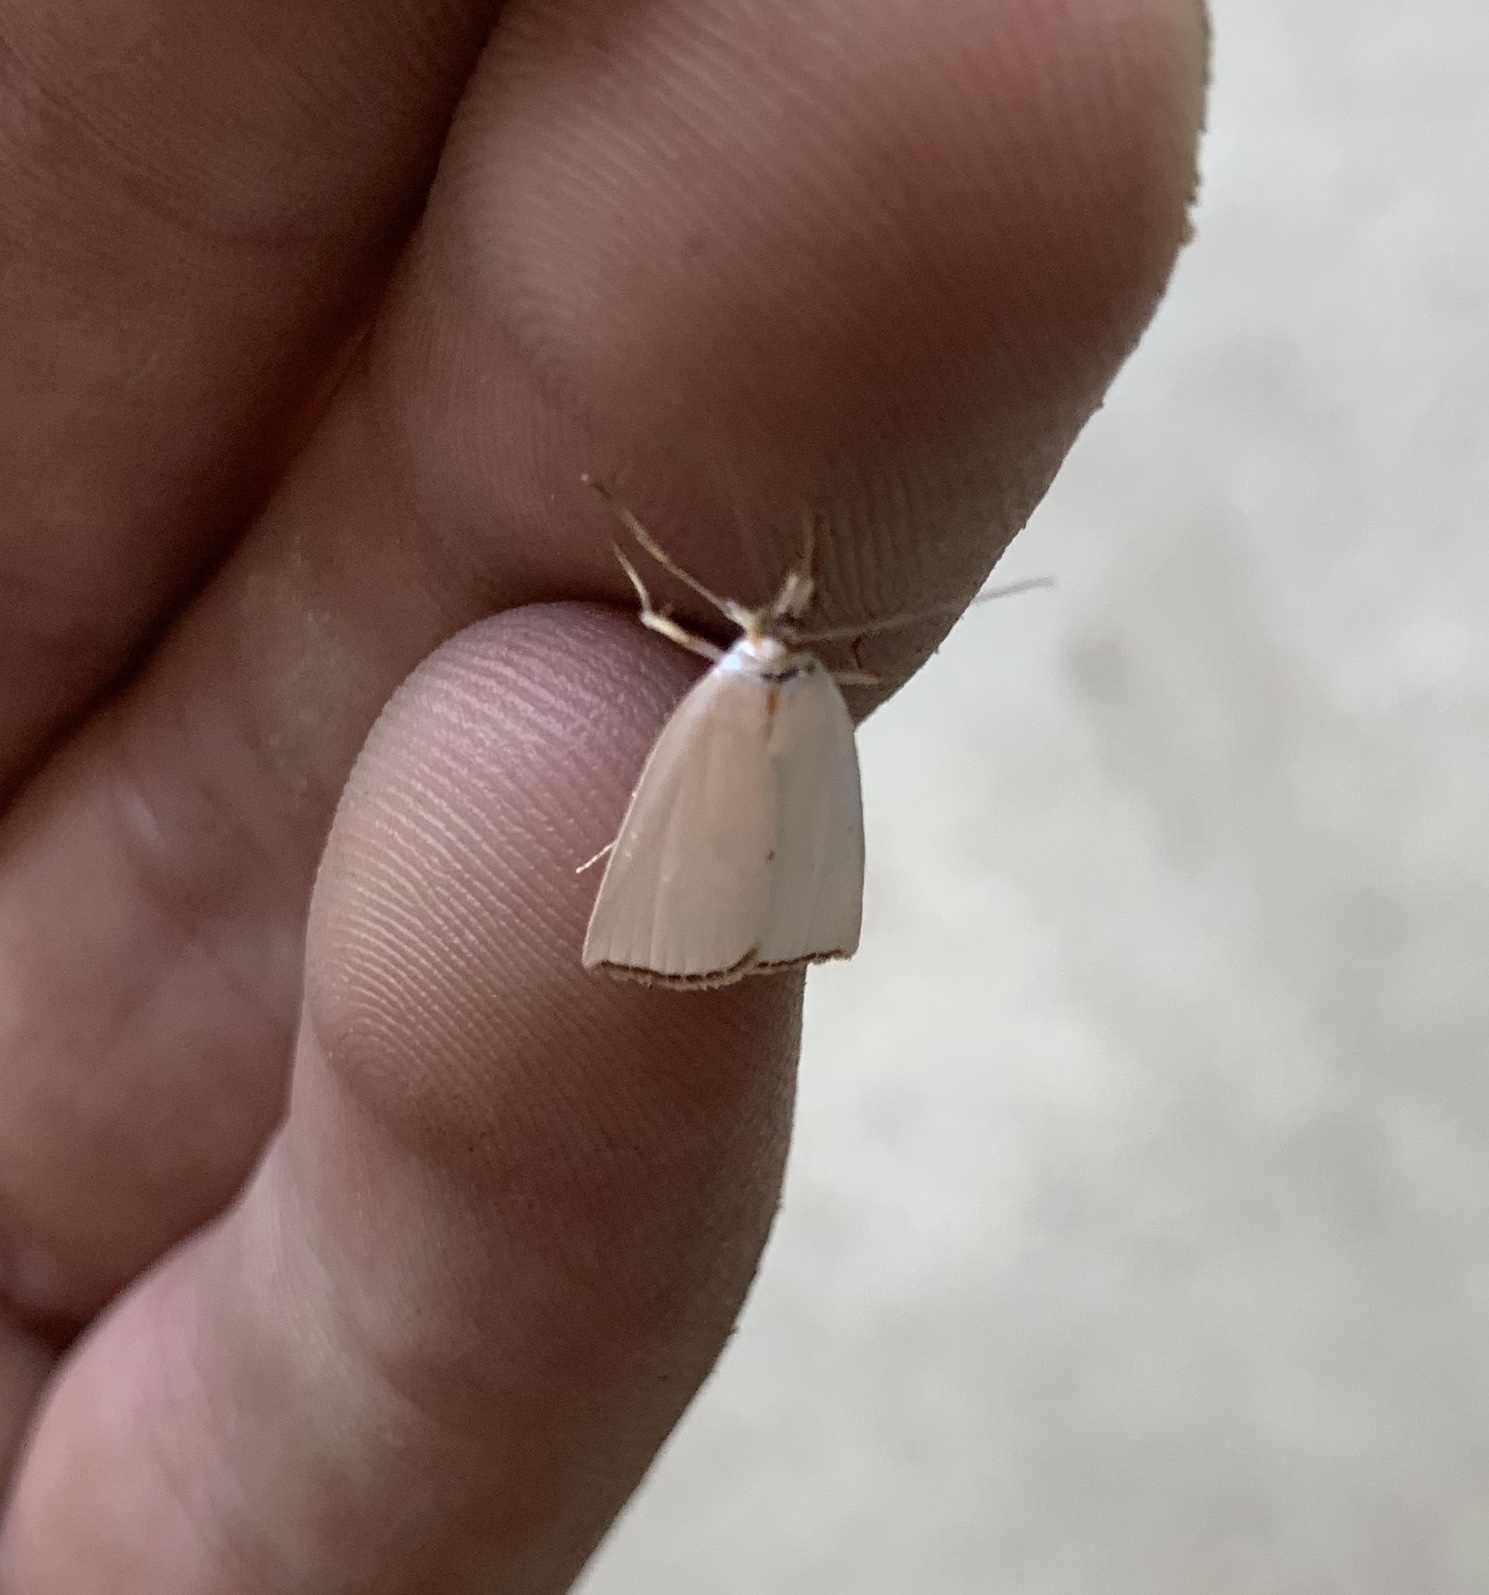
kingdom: Animalia
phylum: Arthropoda
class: Insecta
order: Lepidoptera
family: Crambidae
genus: Argyria
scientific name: Argyria nivalis
